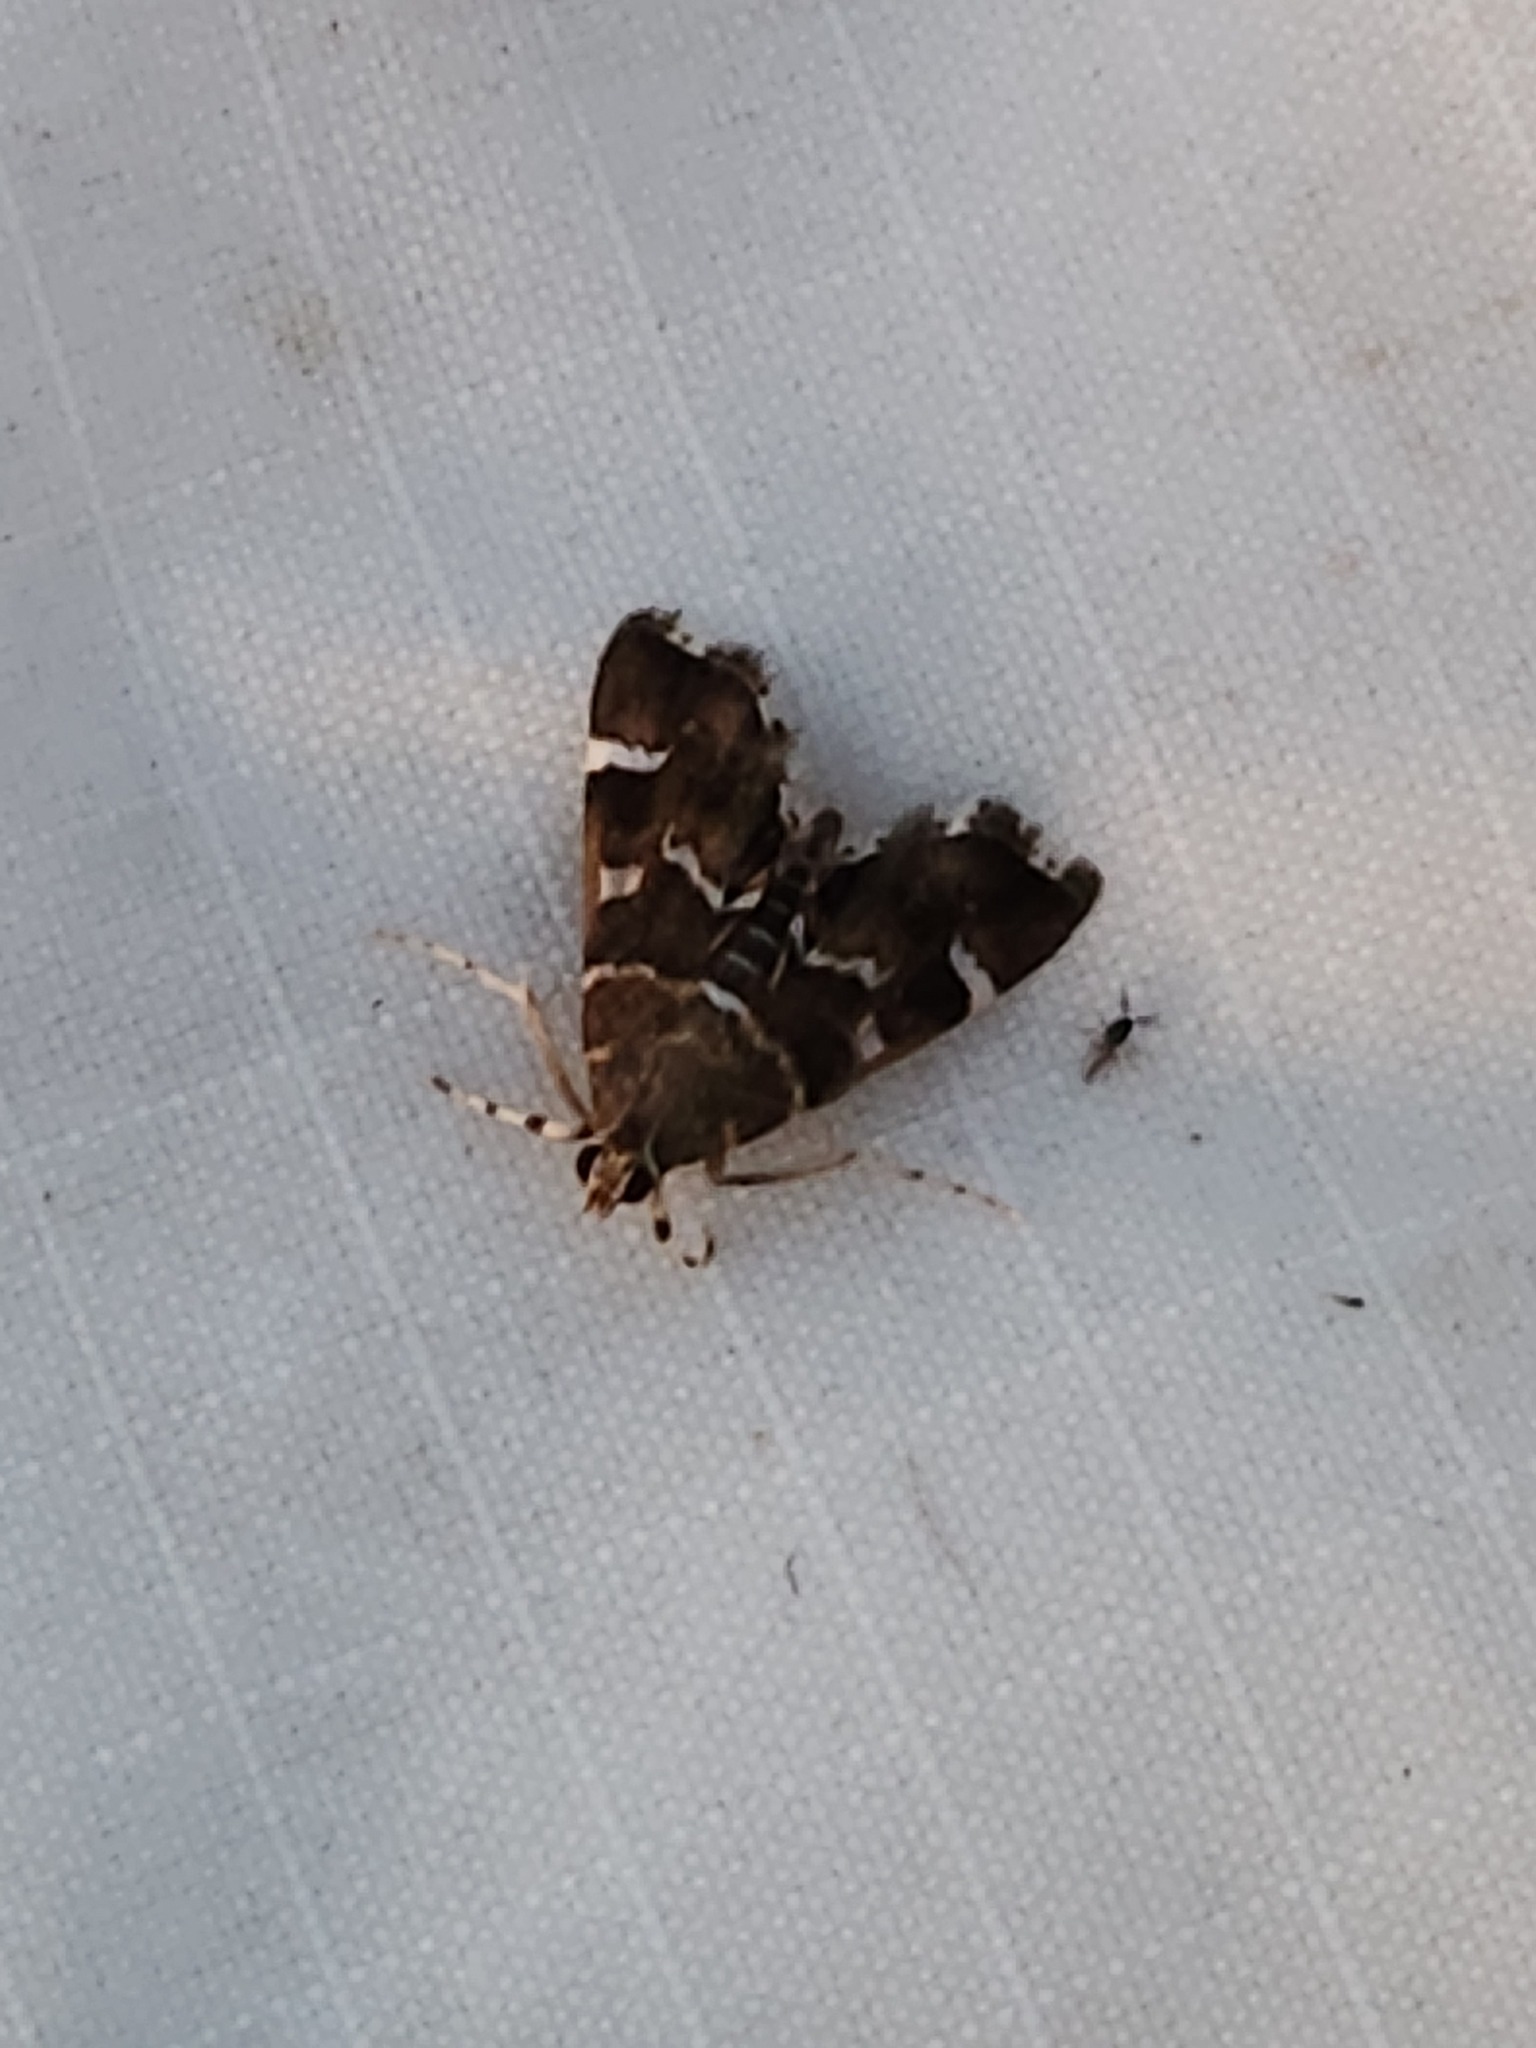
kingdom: Animalia
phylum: Arthropoda
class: Insecta
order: Lepidoptera
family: Crambidae
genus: Hymenia
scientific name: Hymenia perspectalis
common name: Spotted beet webworm
